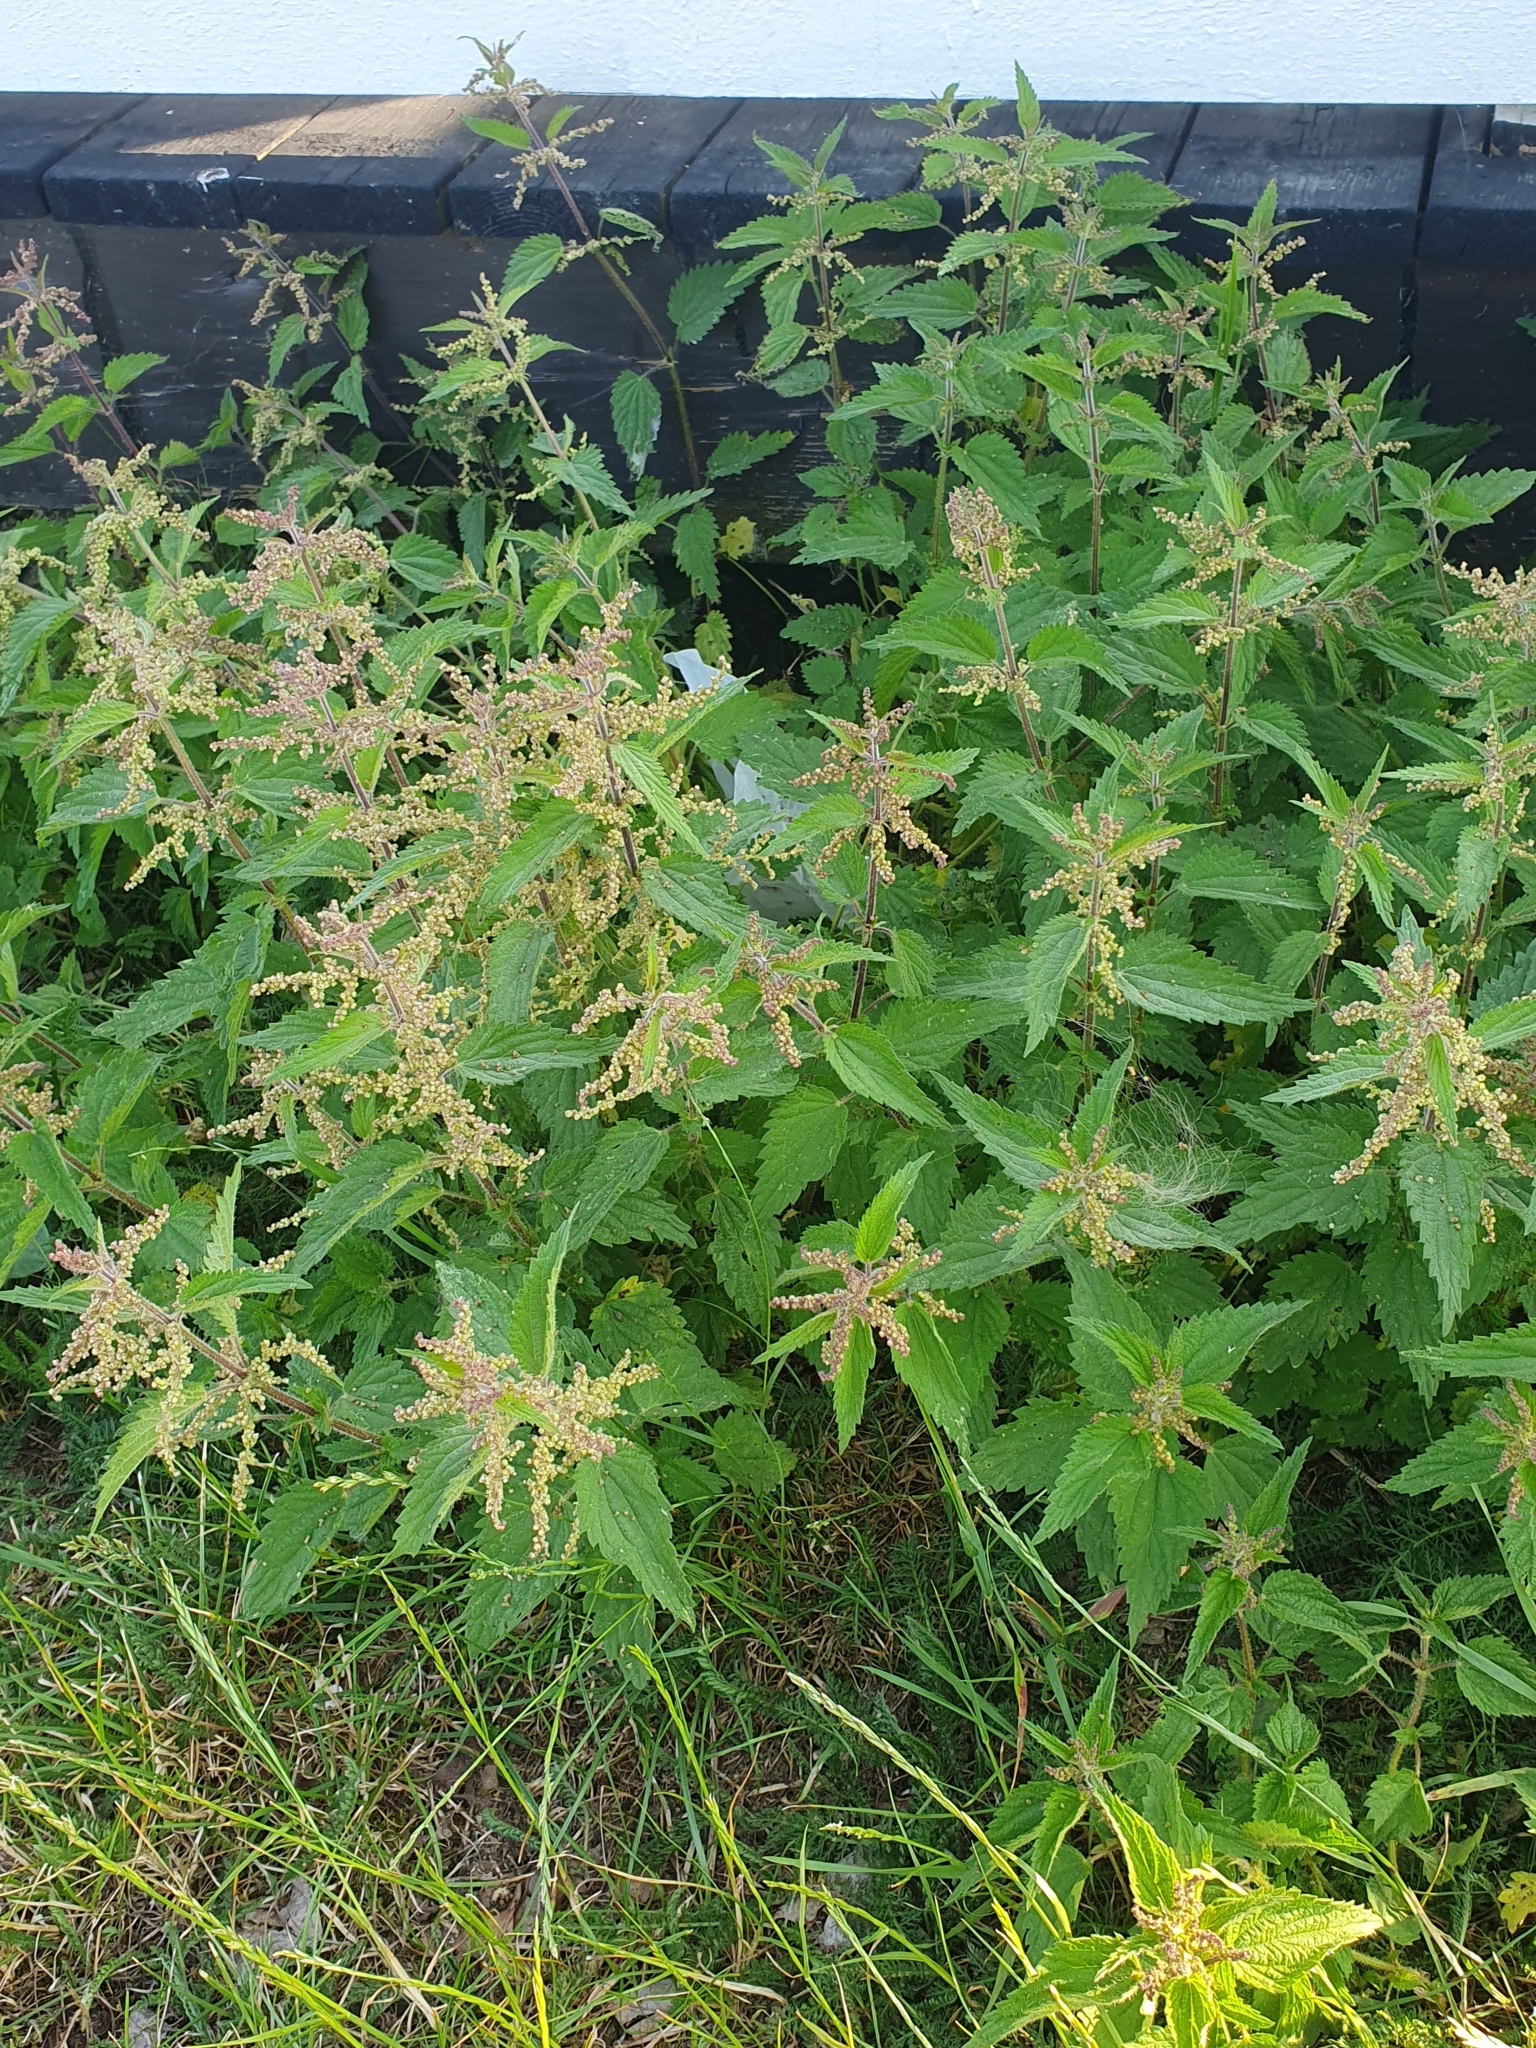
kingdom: Plantae
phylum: Tracheophyta
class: Magnoliopsida
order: Rosales
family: Urticaceae
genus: Urtica
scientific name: Urtica dioica
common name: Common nettle
